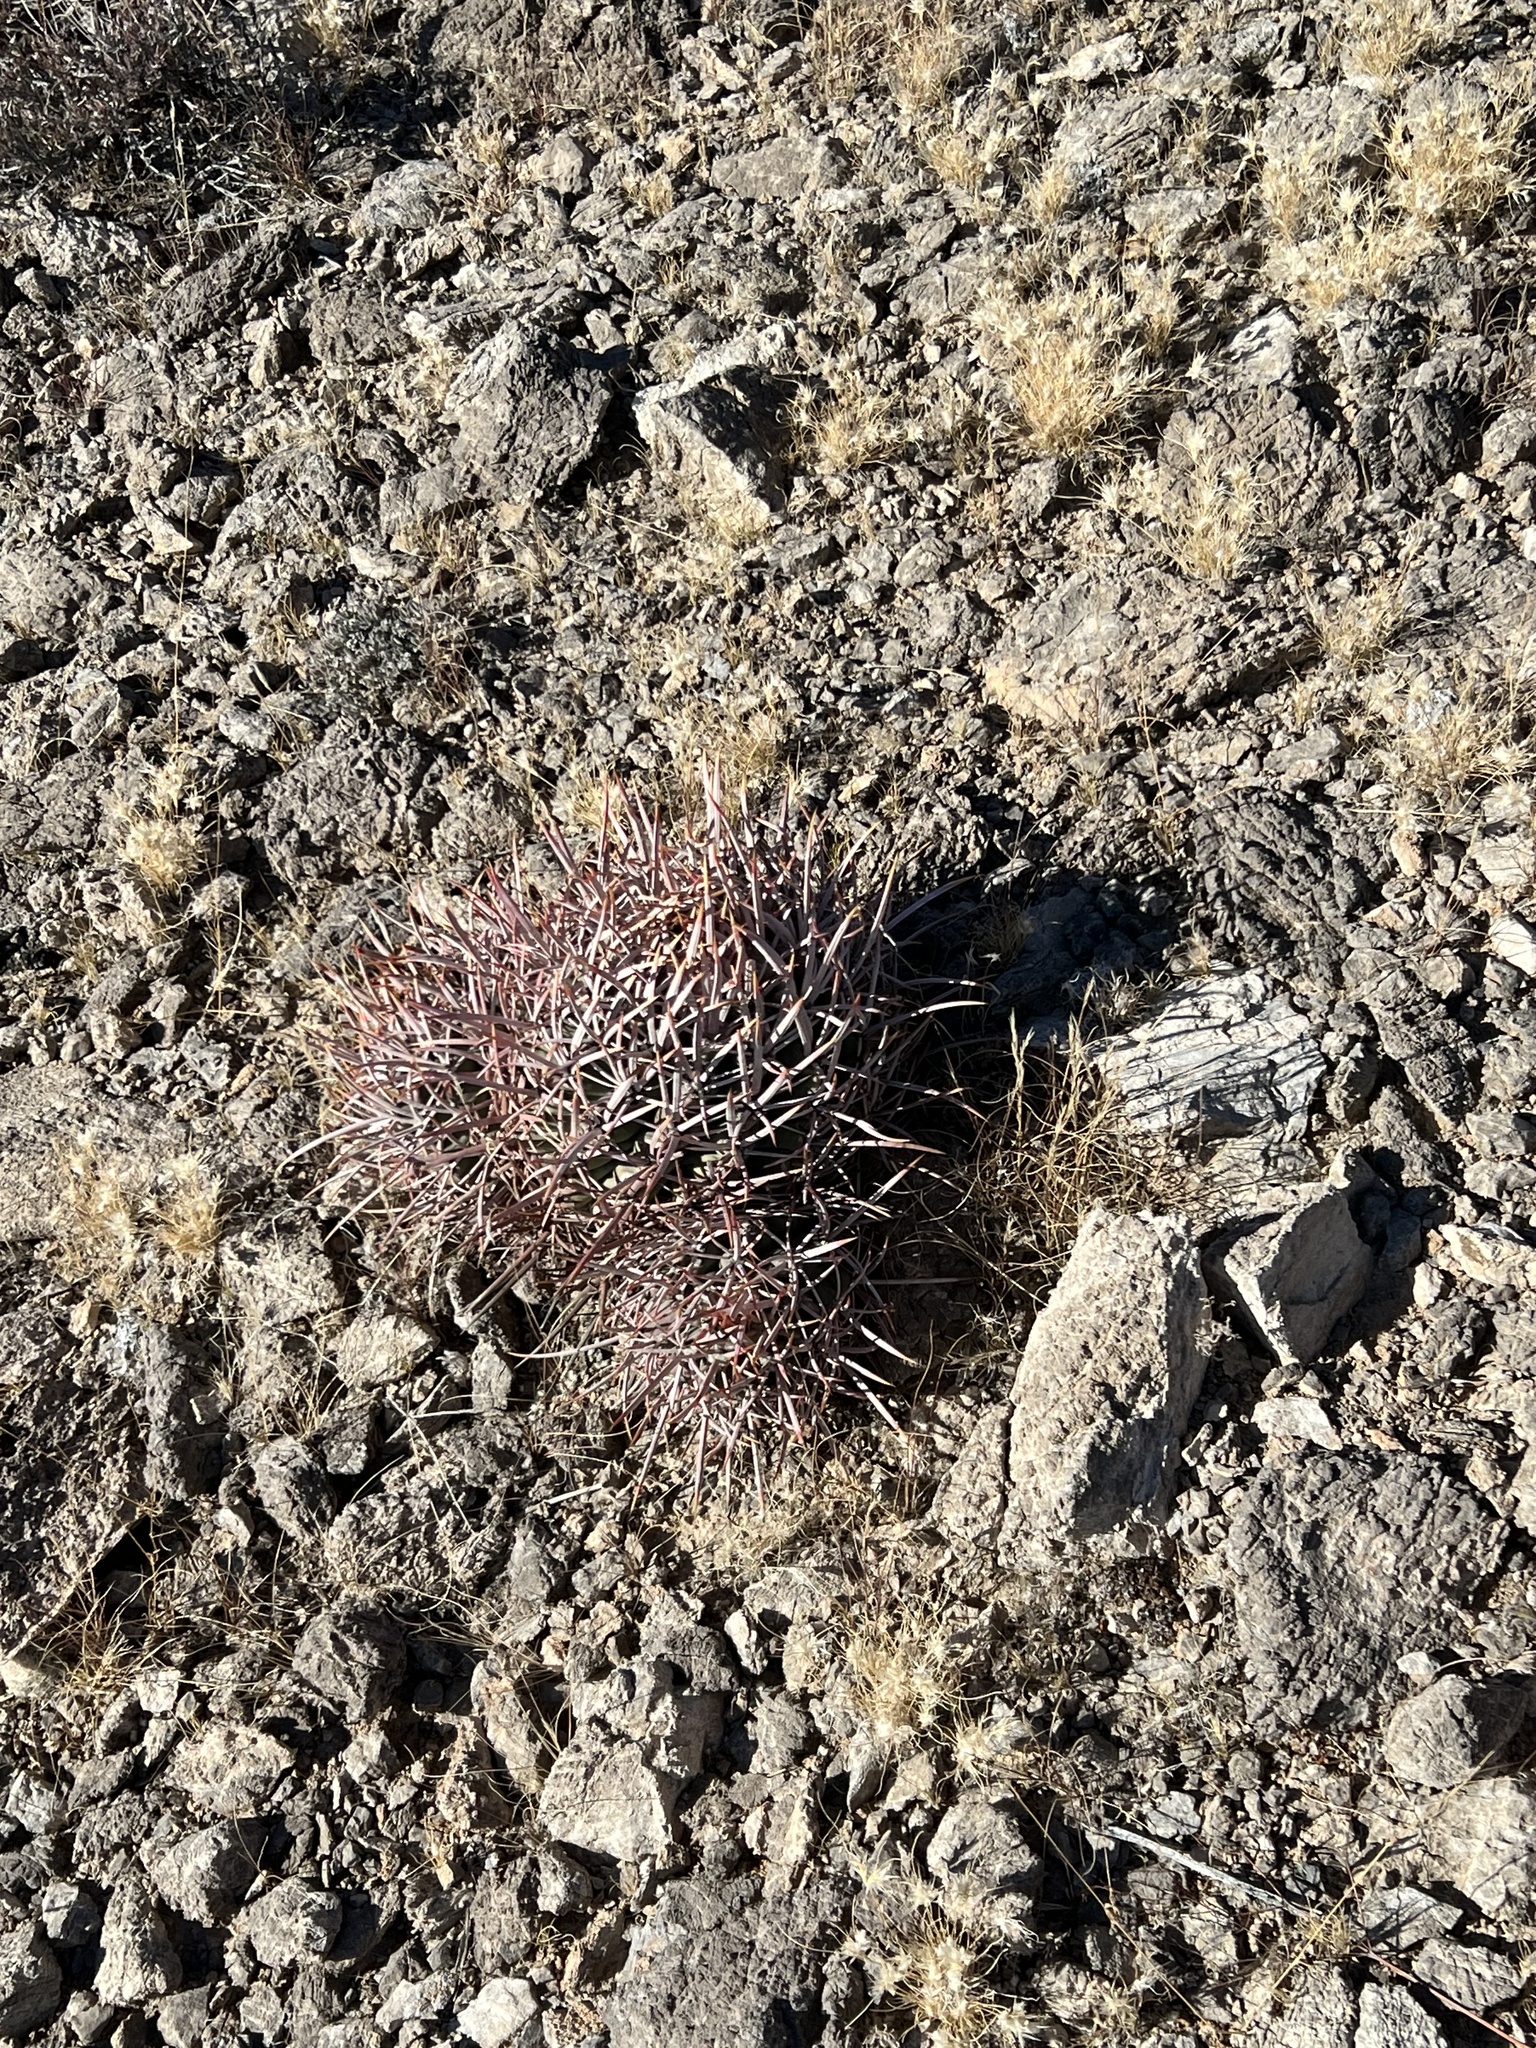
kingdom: Plantae
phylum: Tracheophyta
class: Magnoliopsida
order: Caryophyllales
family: Cactaceae
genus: Echinocactus
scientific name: Echinocactus polycephalus
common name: Cottontop cactus
